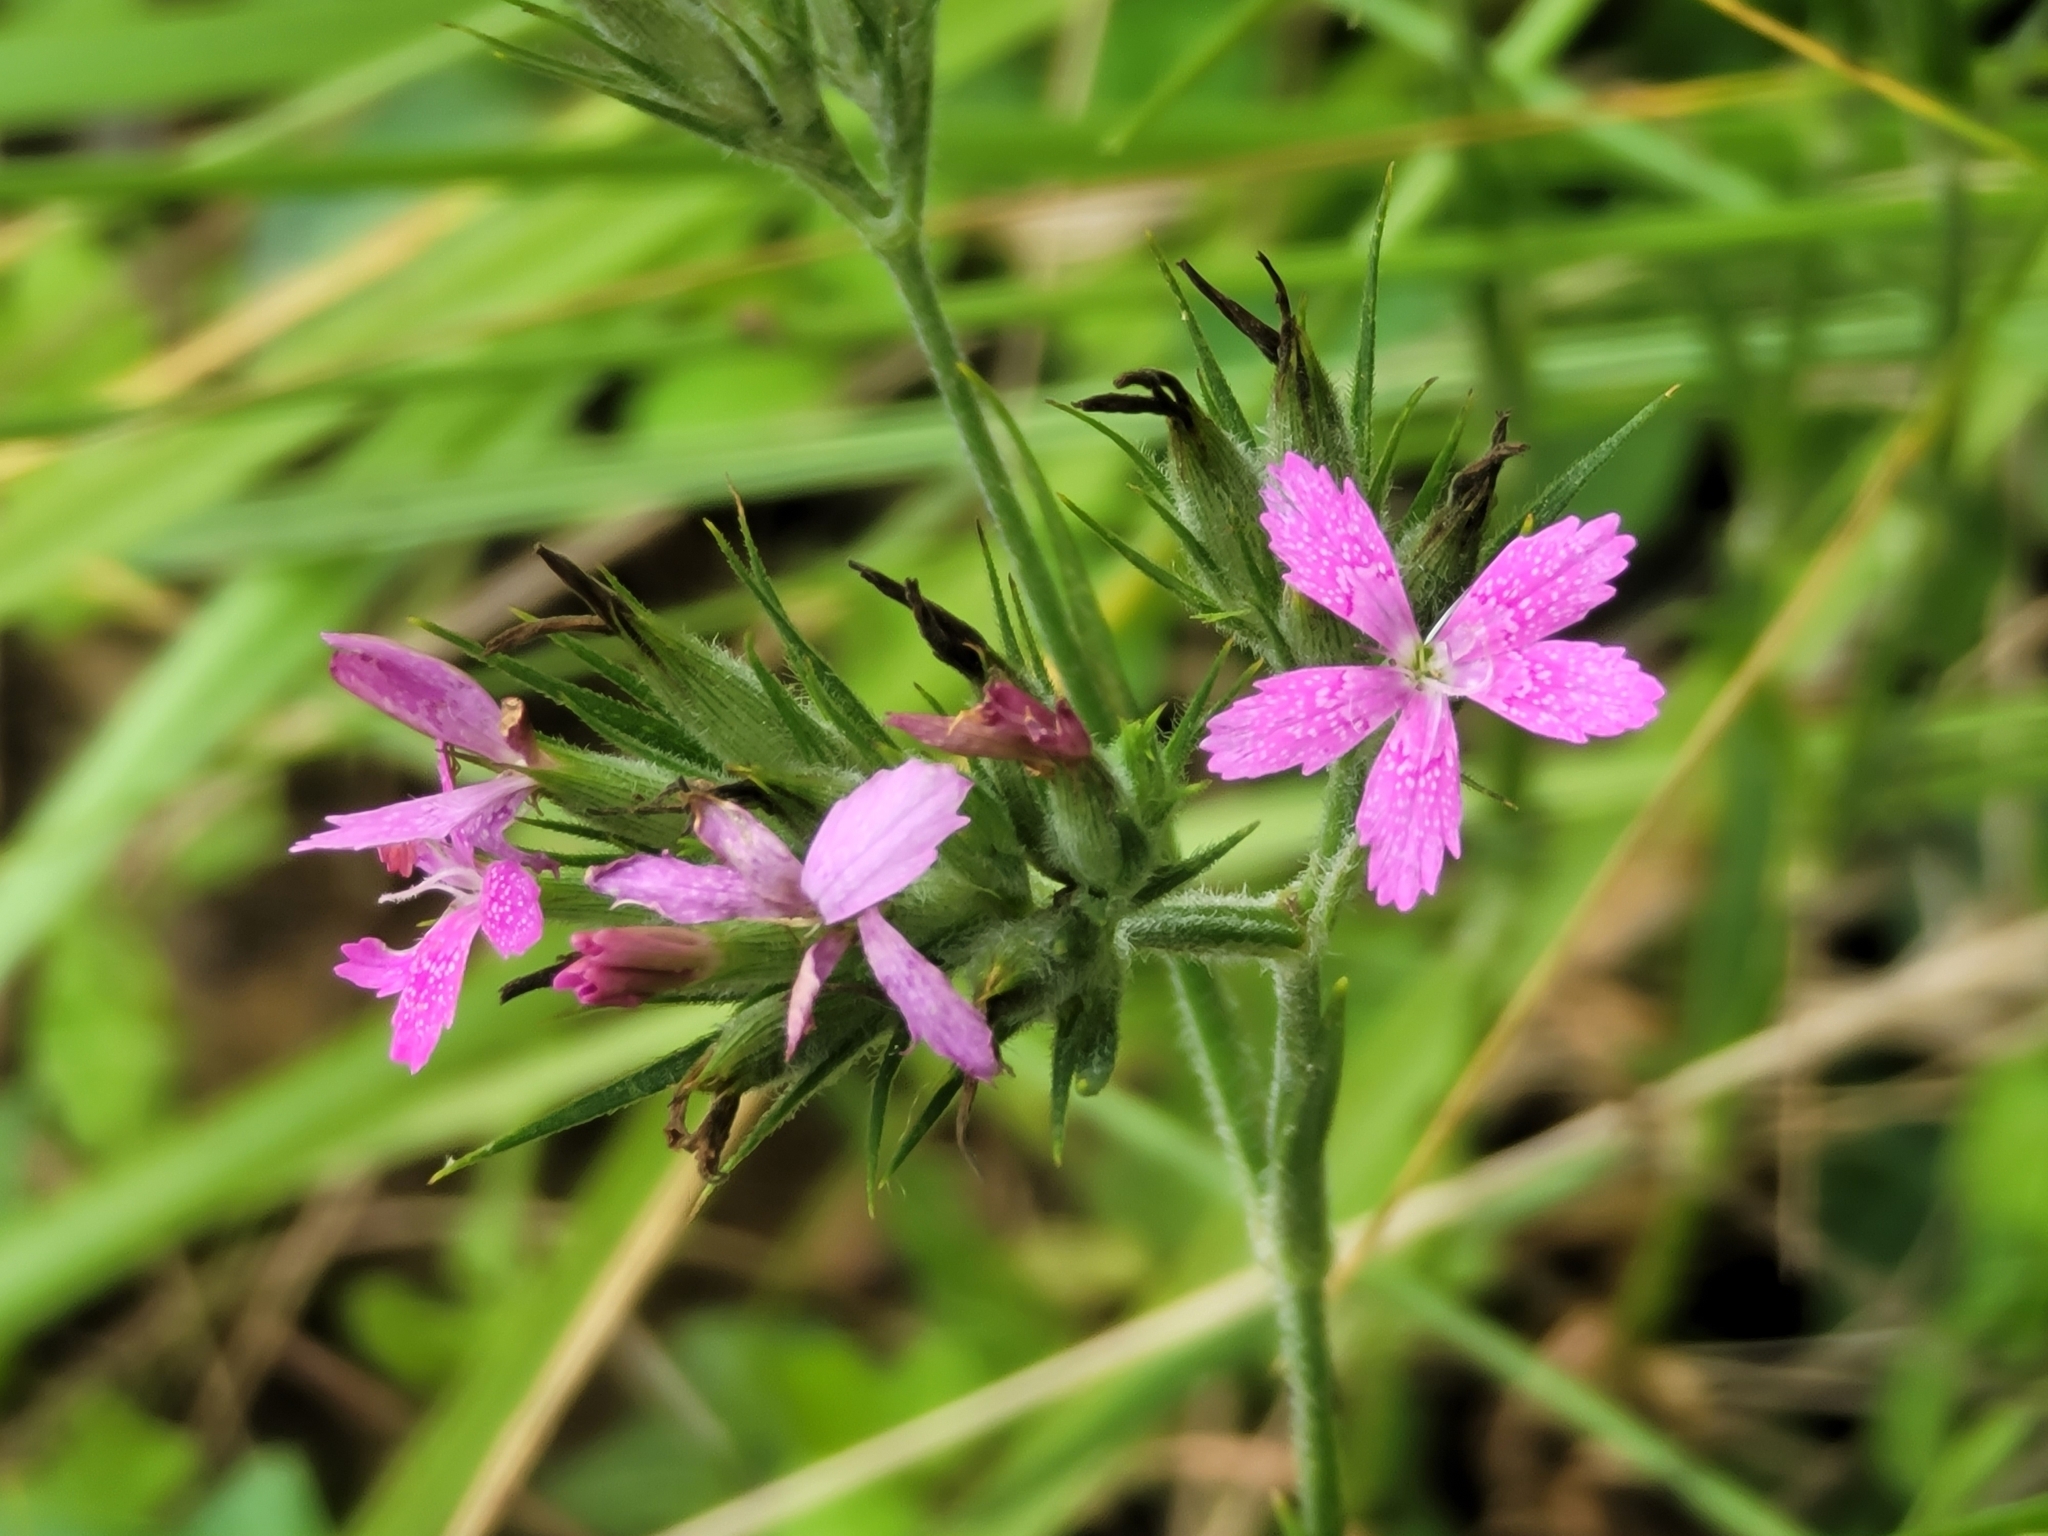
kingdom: Plantae
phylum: Tracheophyta
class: Magnoliopsida
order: Caryophyllales
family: Caryophyllaceae
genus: Dianthus
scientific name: Dianthus armeria
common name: Deptford pink
